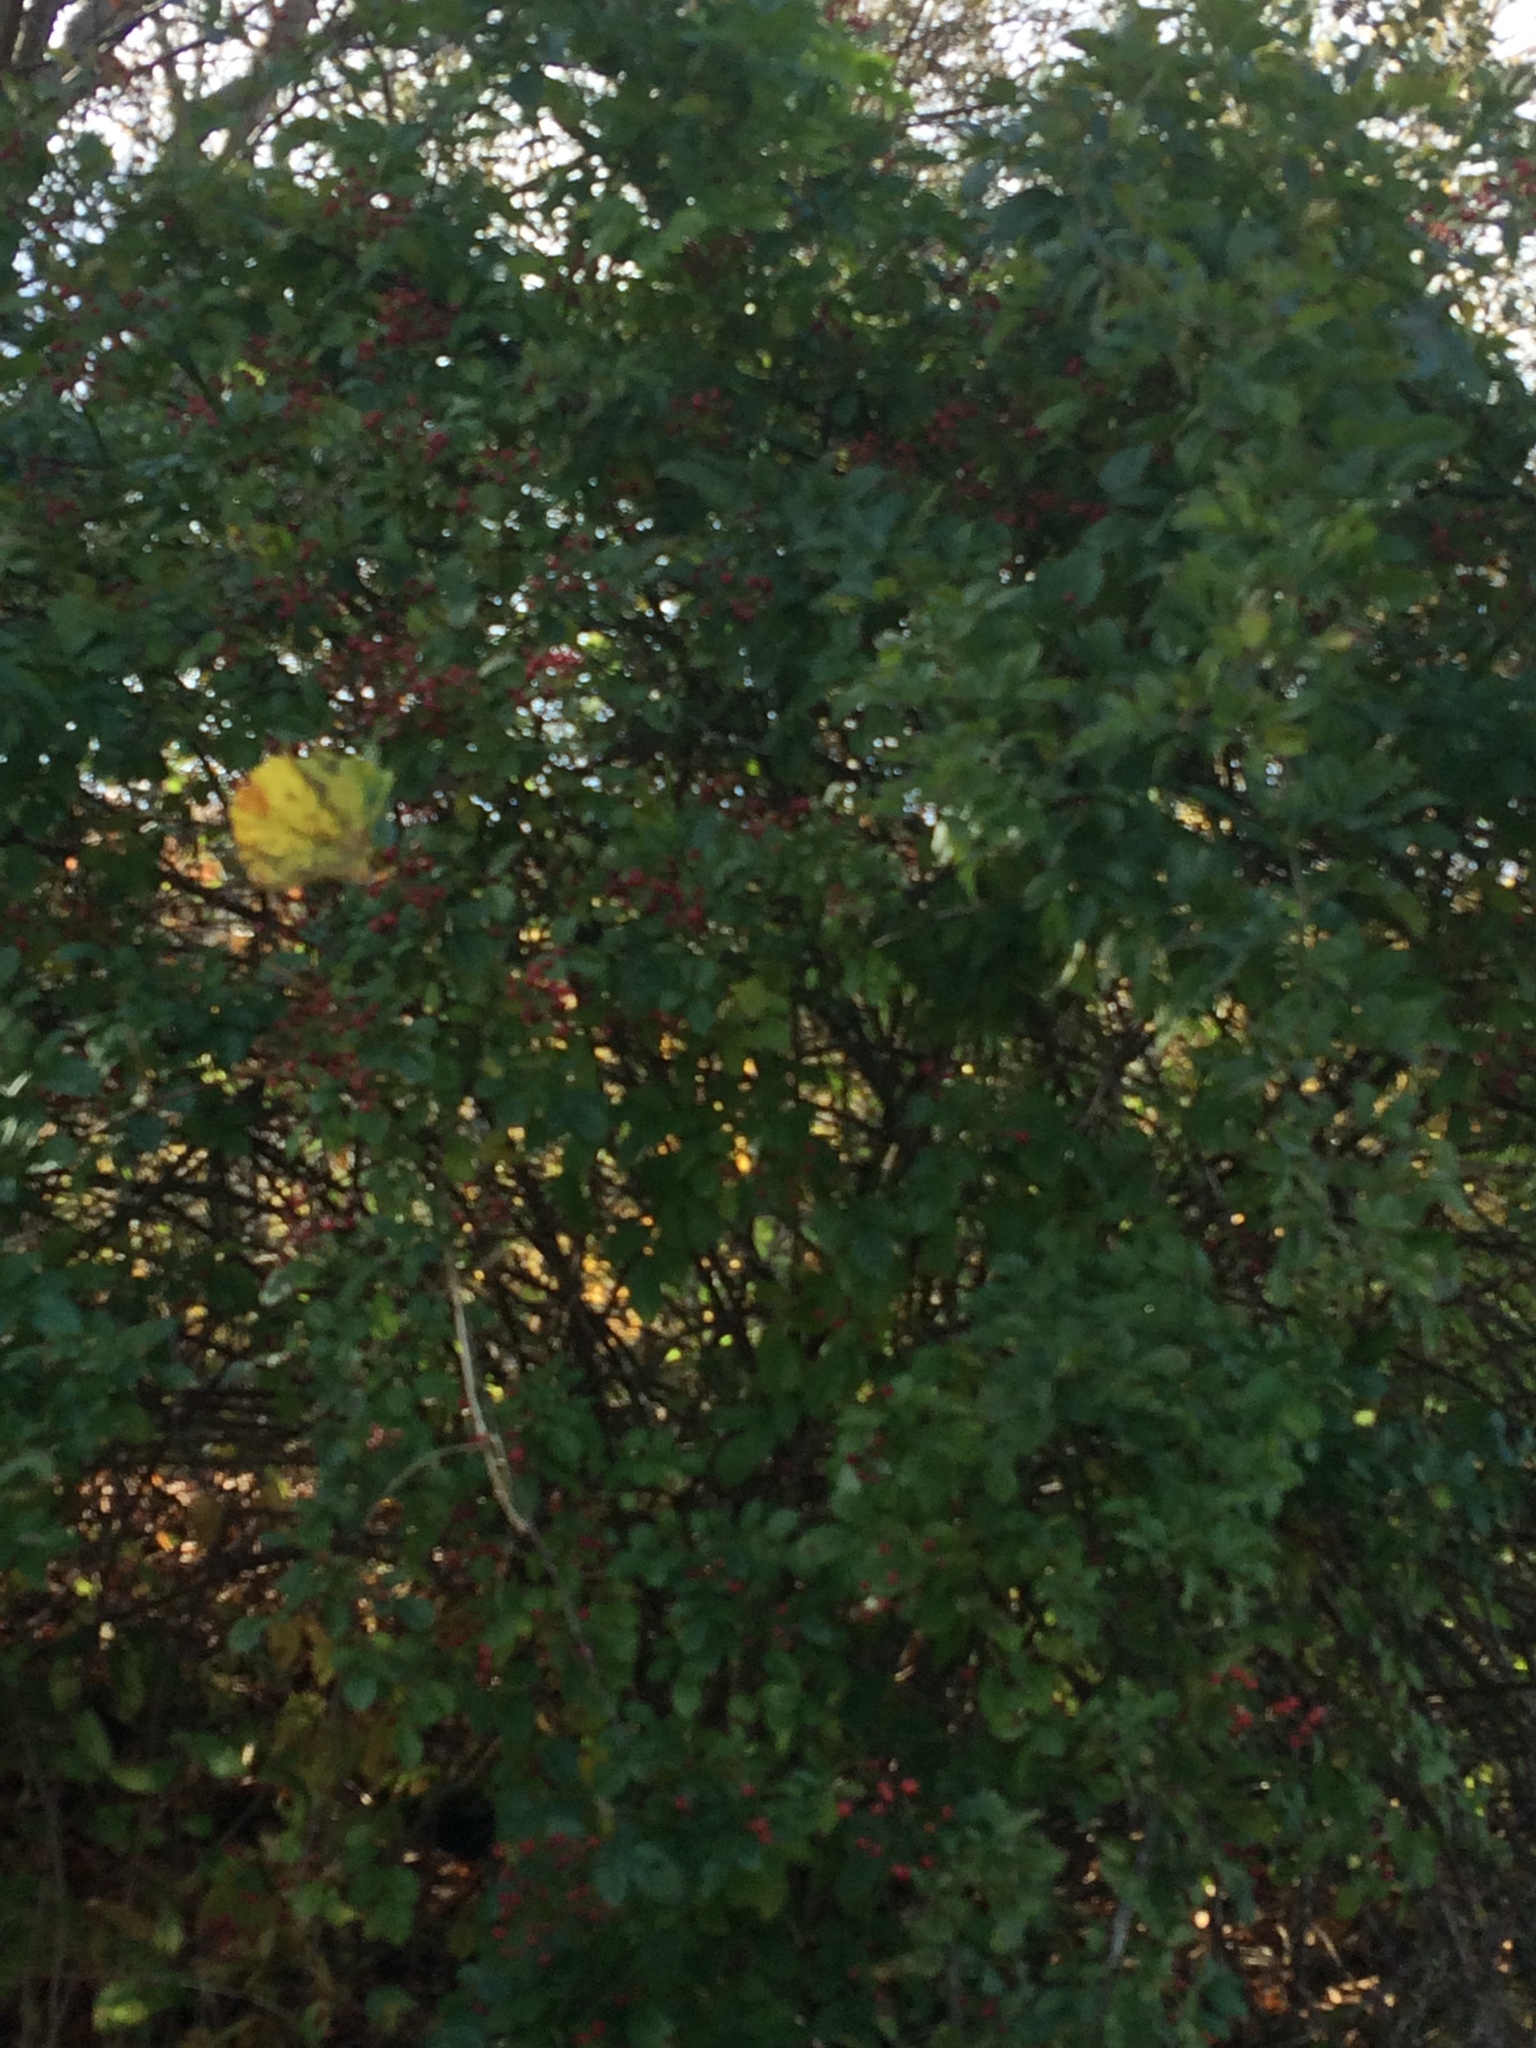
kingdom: Plantae
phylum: Tracheophyta
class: Magnoliopsida
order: Rosales
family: Rosaceae
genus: Rosa
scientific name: Rosa multiflora
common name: Multiflora rose
